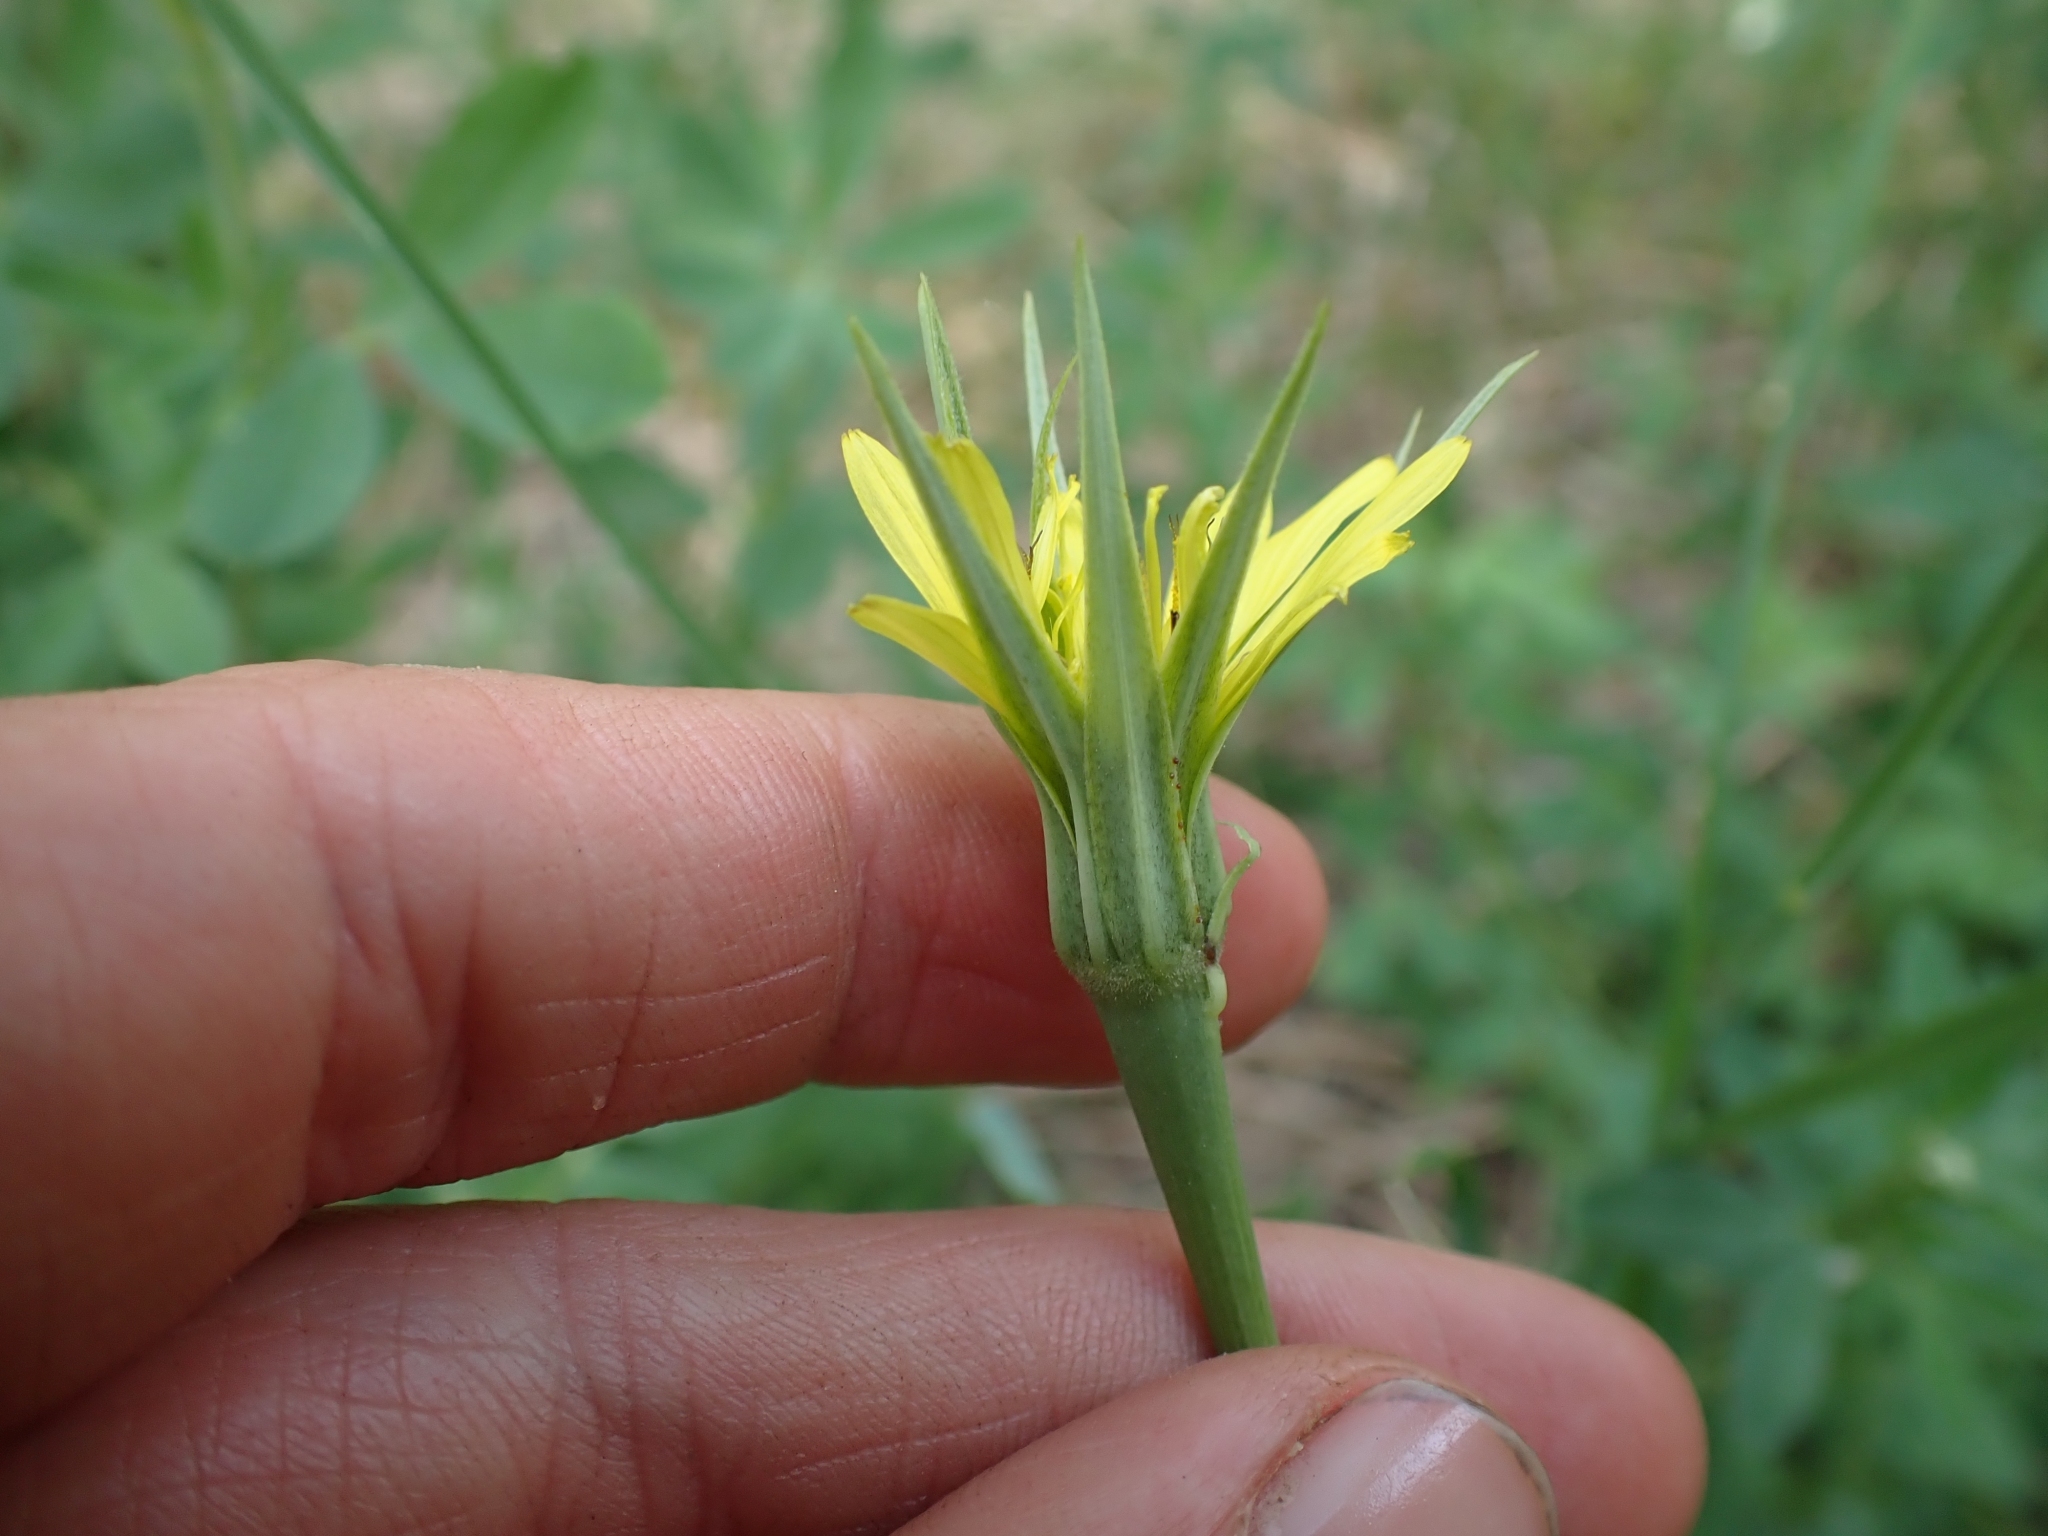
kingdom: Plantae
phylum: Tracheophyta
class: Magnoliopsida
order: Asterales
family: Asteraceae
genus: Tragopogon
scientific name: Tragopogon dubius
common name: Yellow salsify
